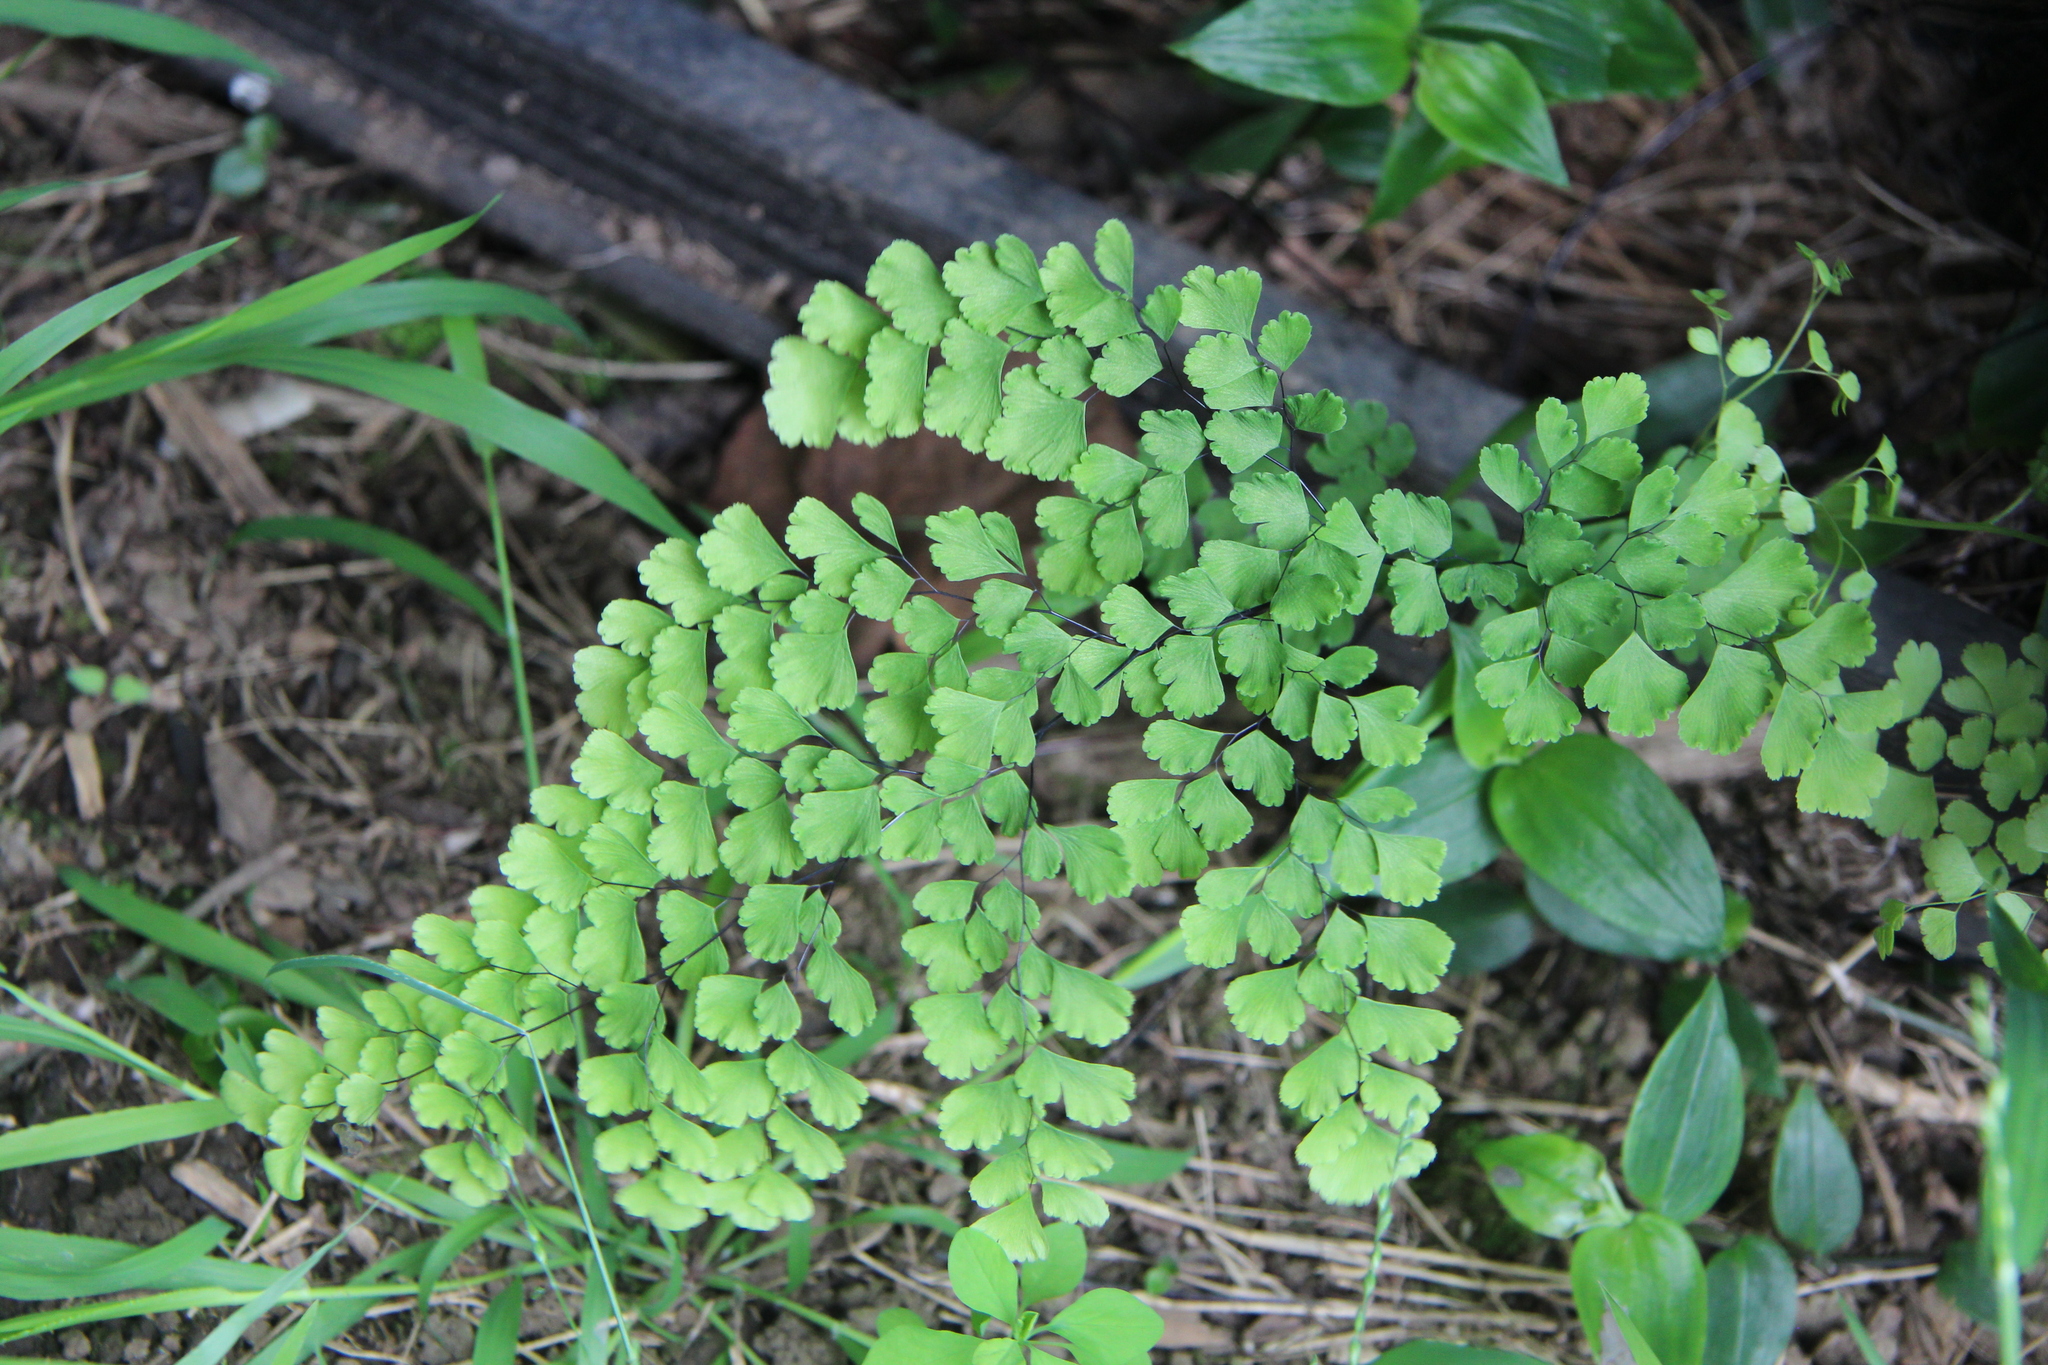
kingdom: Plantae
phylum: Tracheophyta
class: Polypodiopsida
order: Polypodiales
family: Pteridaceae
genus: Adiantum
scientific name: Adiantum raddianum
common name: Delta maidenhair fern
